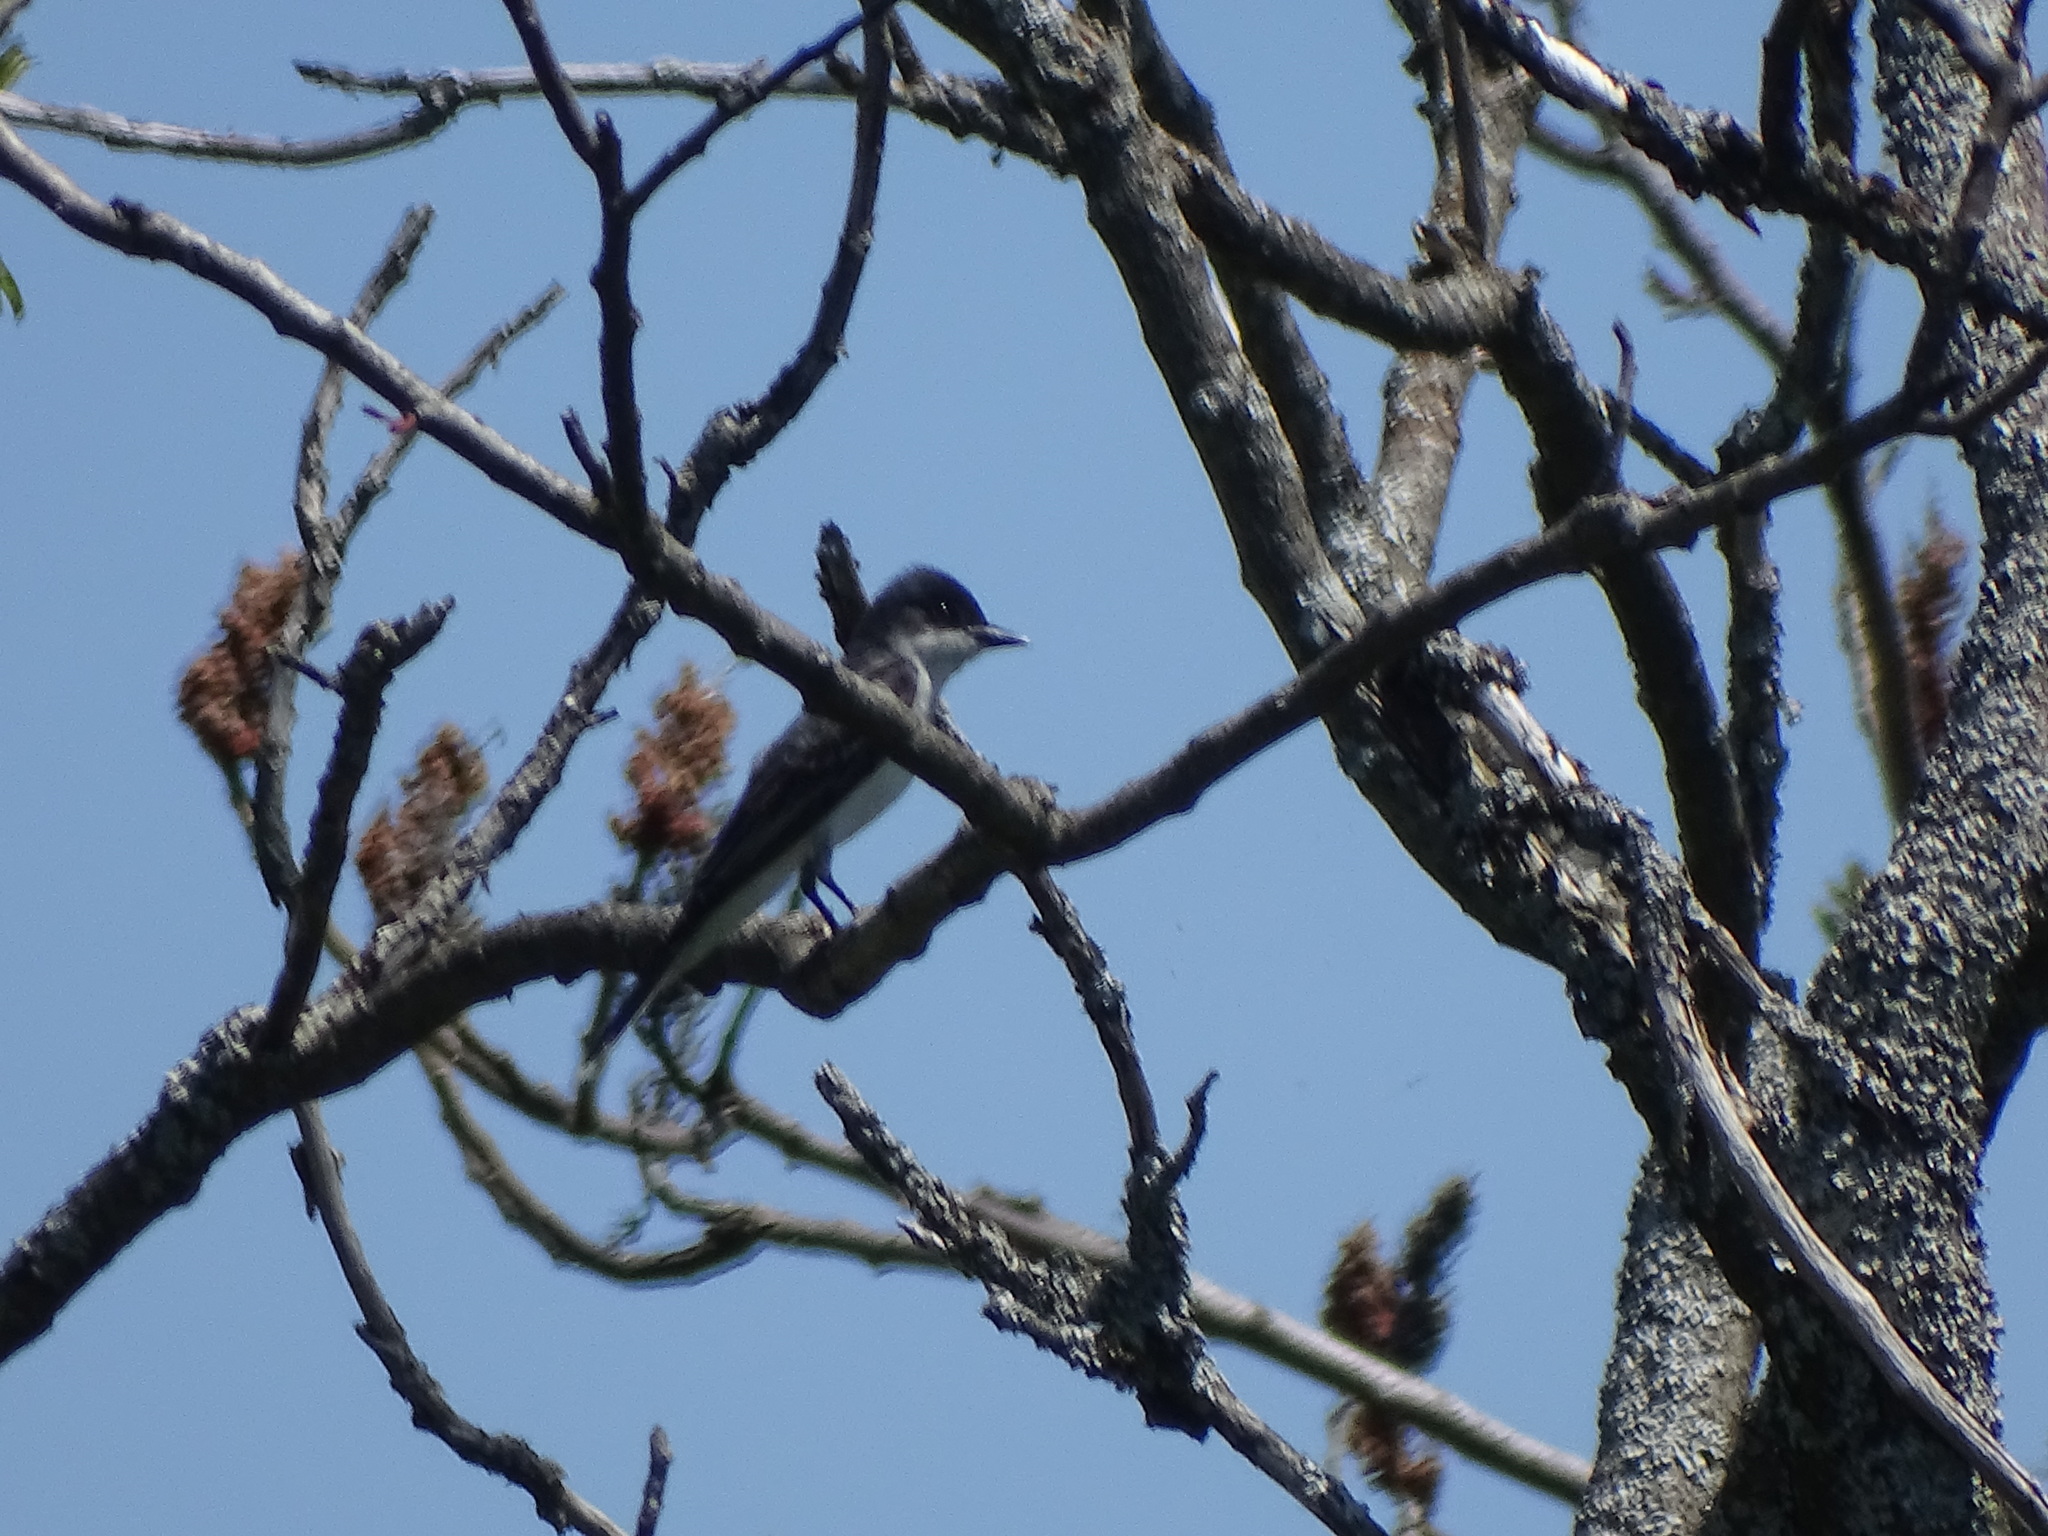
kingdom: Animalia
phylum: Chordata
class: Aves
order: Passeriformes
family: Tyrannidae
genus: Tyrannus
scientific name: Tyrannus tyrannus
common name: Eastern kingbird
